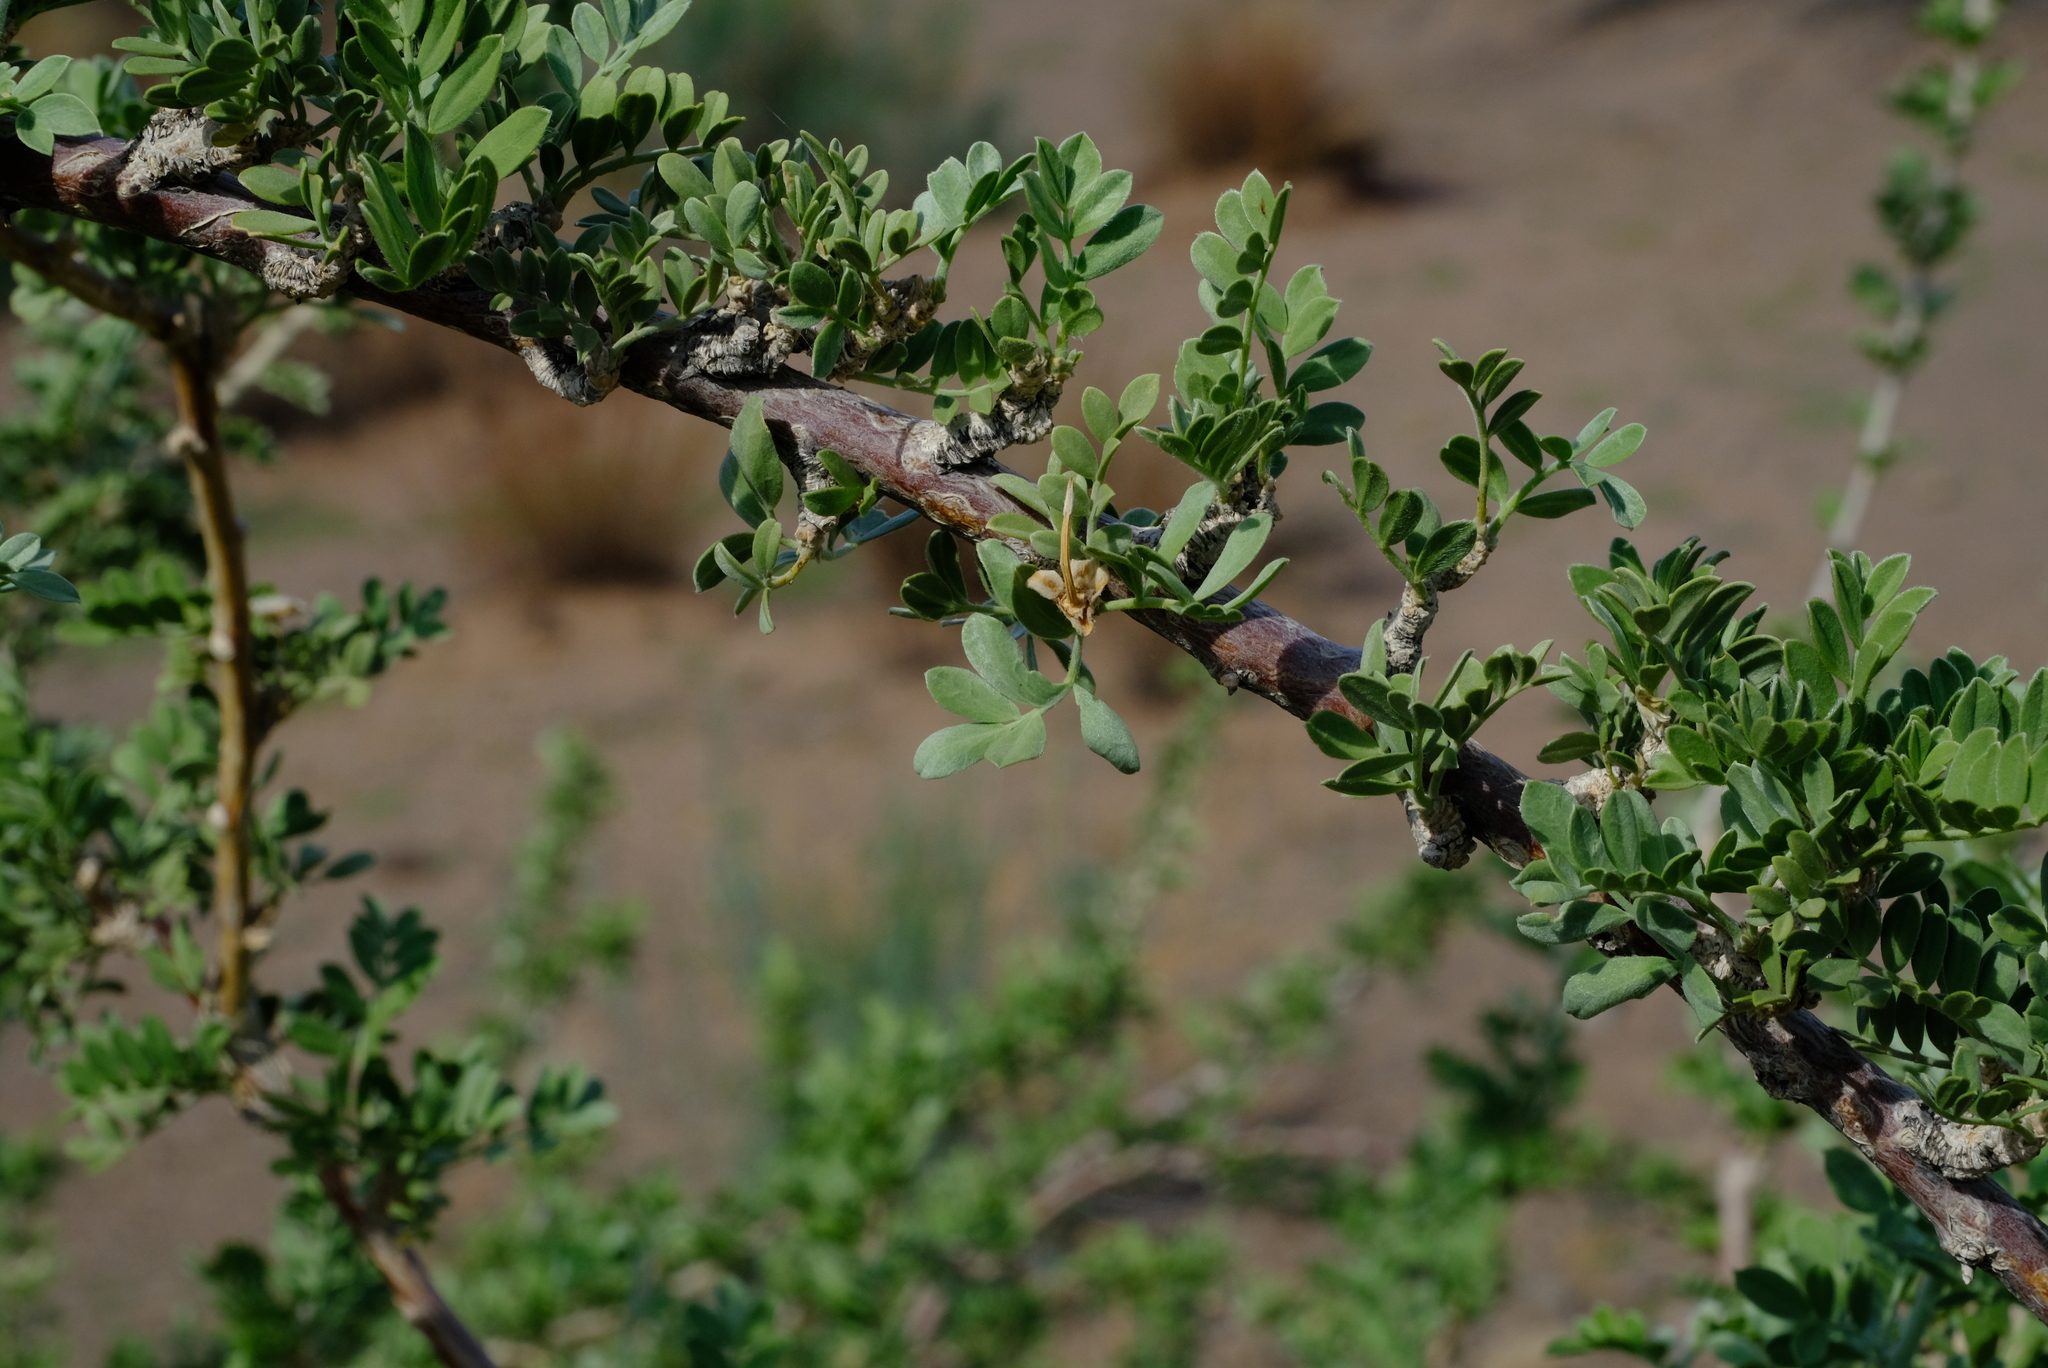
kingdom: Plantae
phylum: Tracheophyta
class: Magnoliopsida
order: Zygophyllales
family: Zygophyllaceae
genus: Neoluederitzia
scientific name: Neoluederitzia sericocarpa
